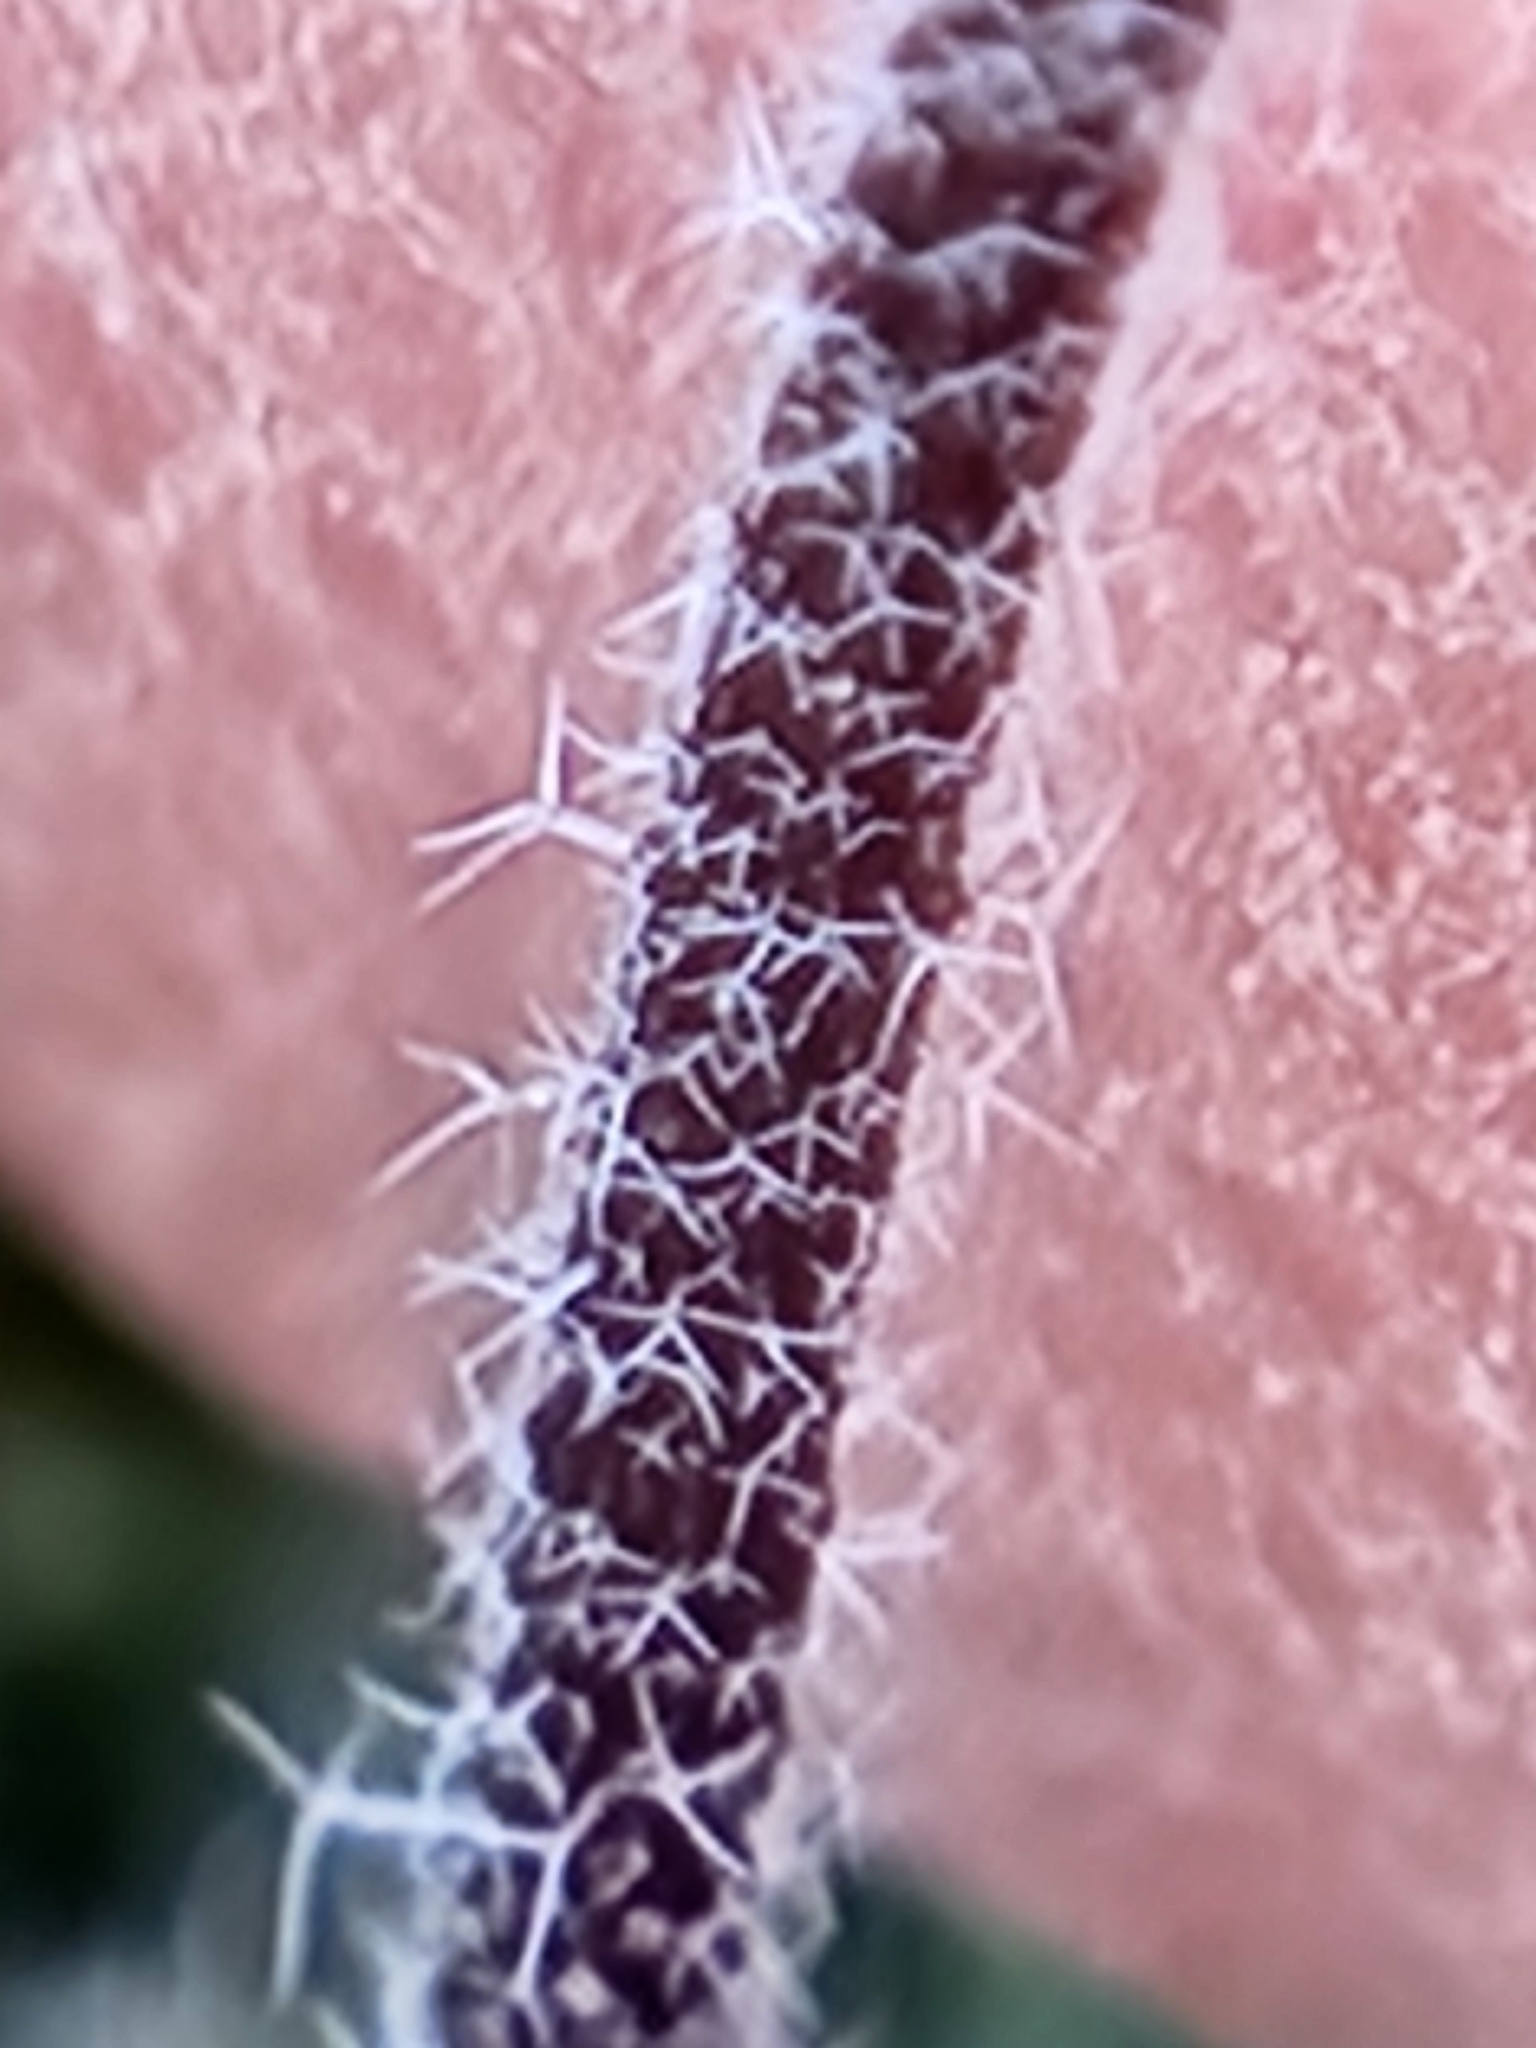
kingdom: Plantae
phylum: Tracheophyta
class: Magnoliopsida
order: Brassicales
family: Brassicaceae
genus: Tomostima
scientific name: Tomostima cuneifolia
